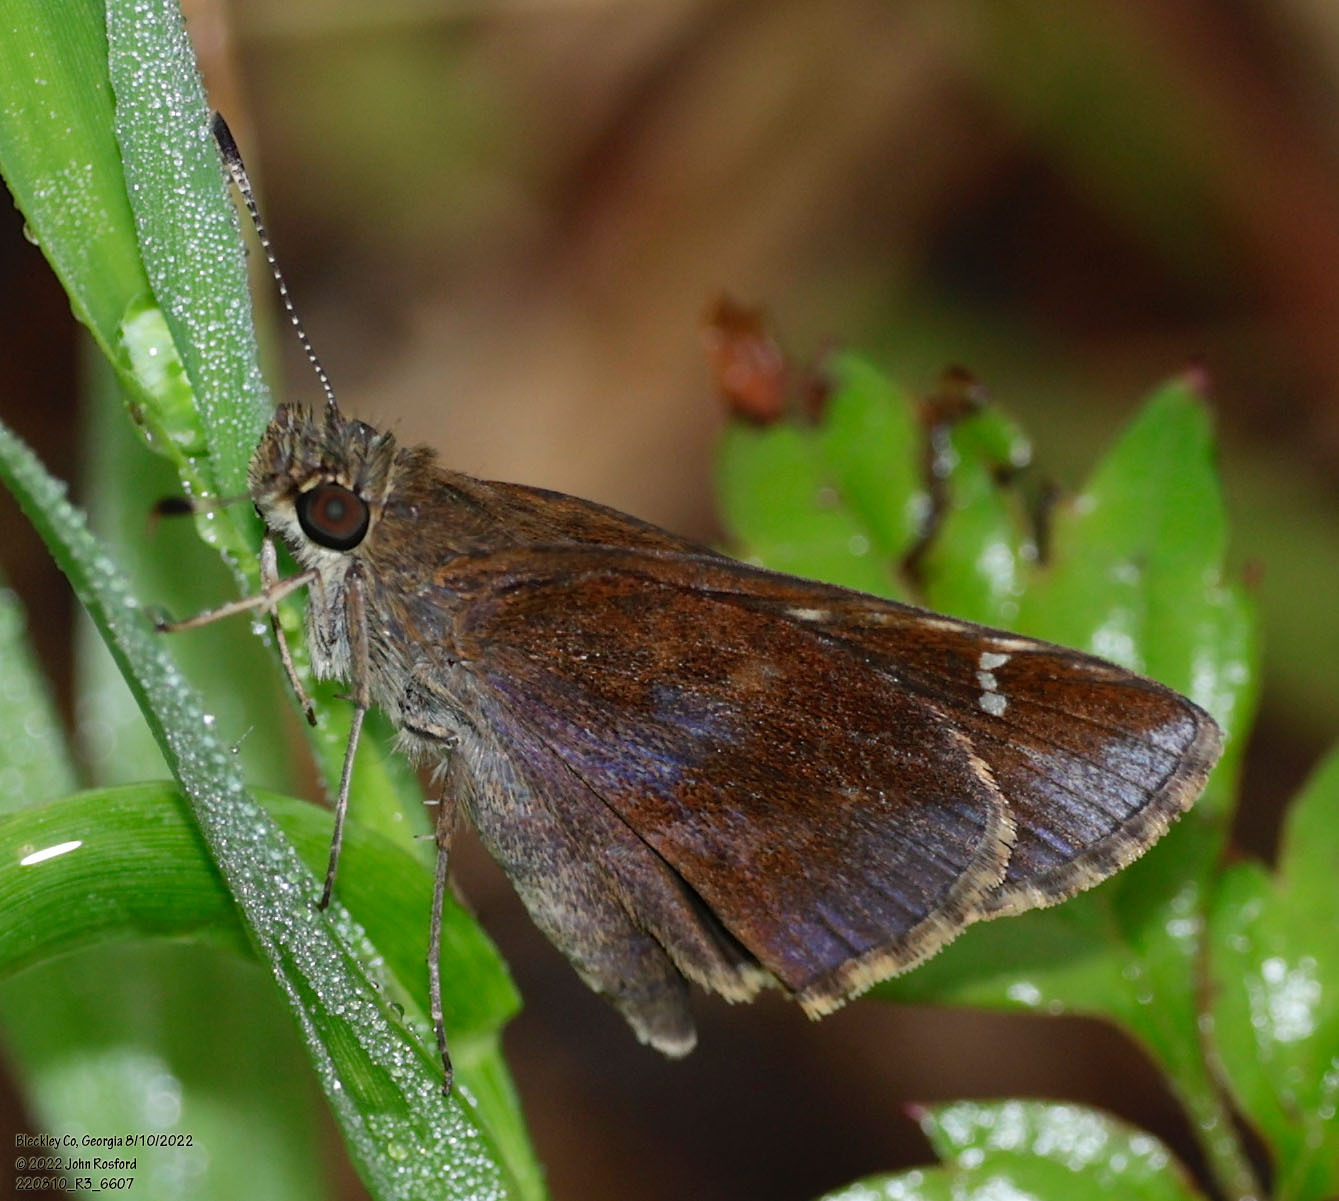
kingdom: Animalia
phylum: Arthropoda
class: Insecta
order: Lepidoptera
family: Hesperiidae
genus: Lerema
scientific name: Lerema accius
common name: Clouded skipper
